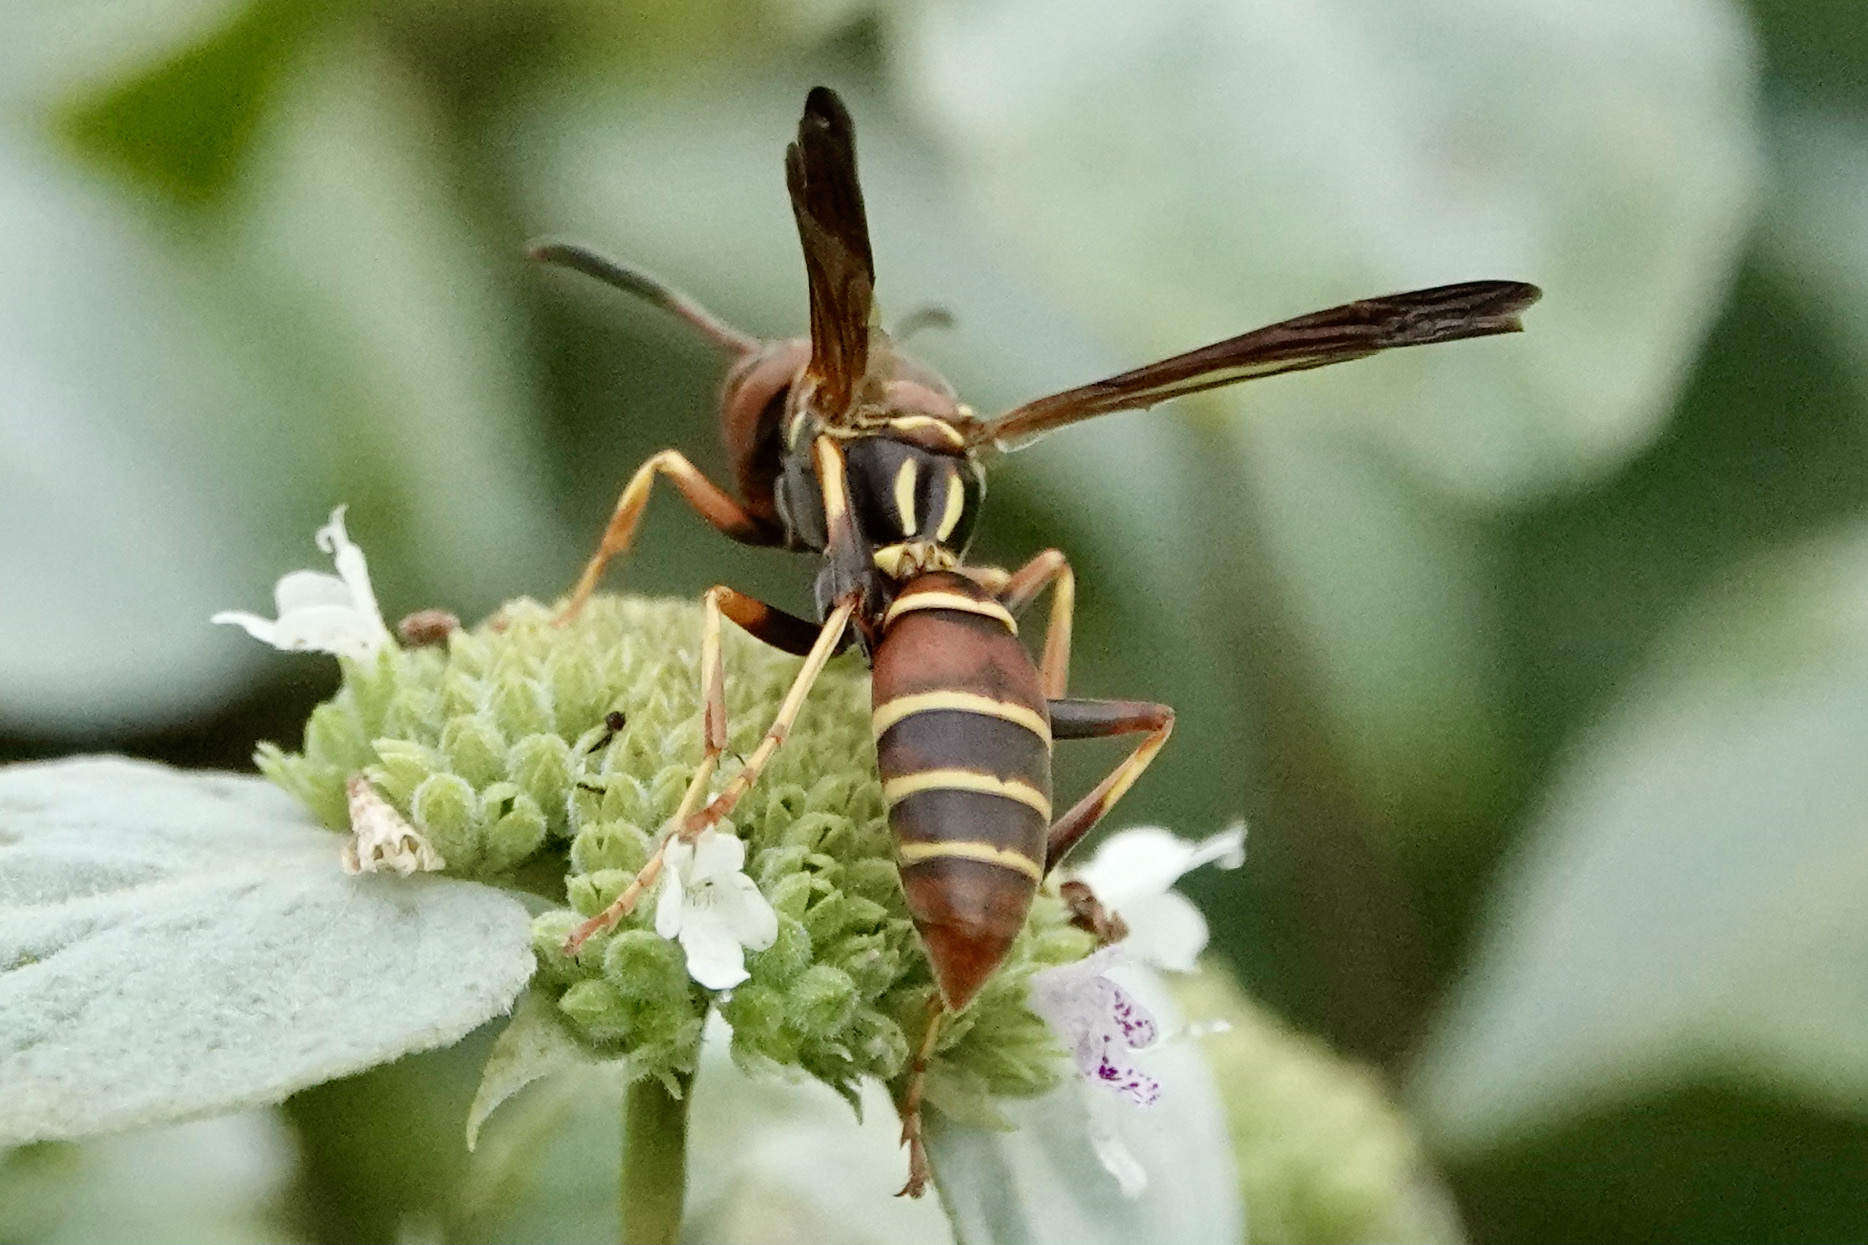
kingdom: Animalia
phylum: Arthropoda
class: Insecta
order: Hymenoptera
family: Eumenidae
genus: Polistes
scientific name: Polistes dorsalis
